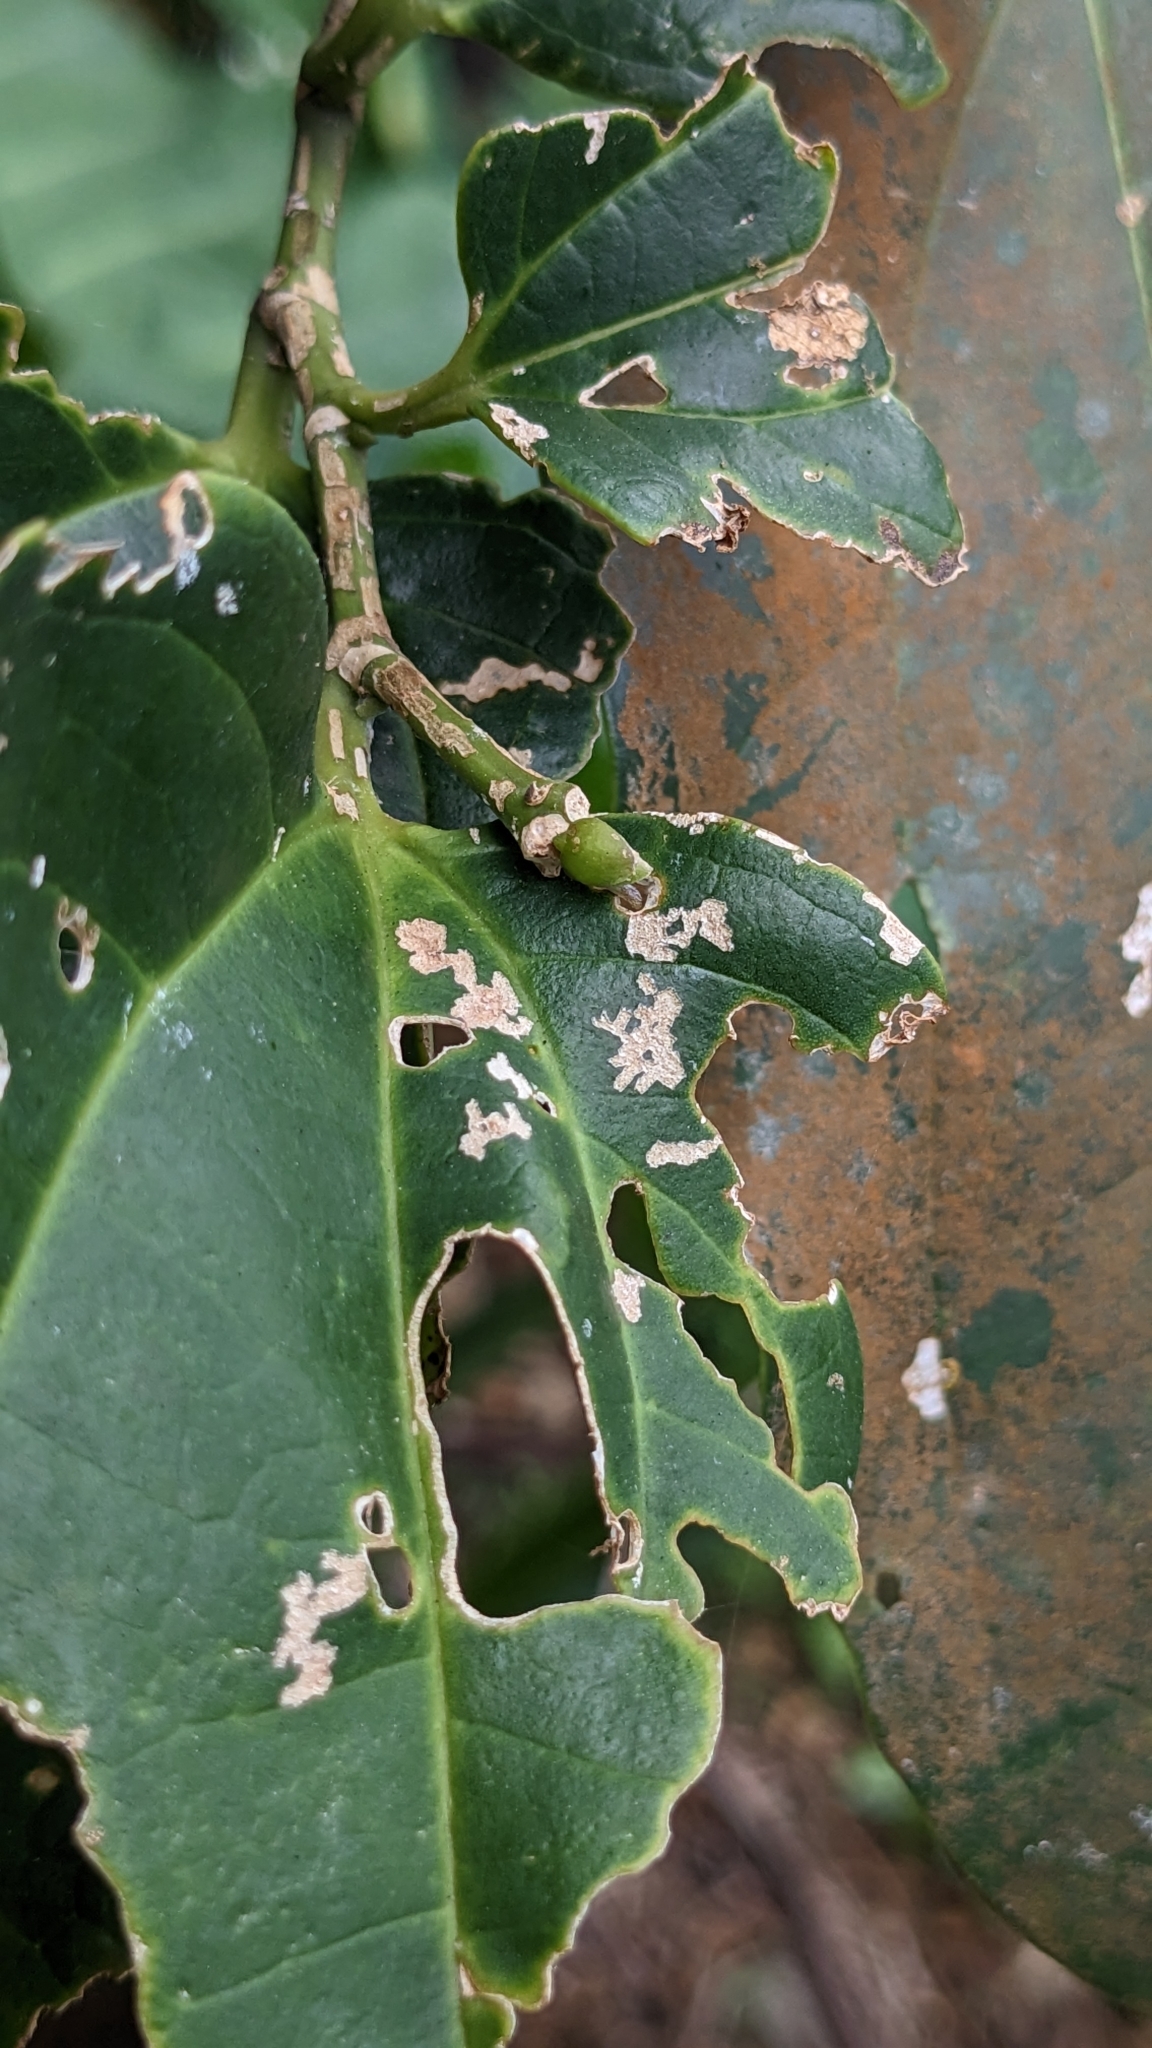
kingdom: Plantae
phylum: Tracheophyta
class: Magnoliopsida
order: Rosales
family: Cannabaceae
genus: Celtis
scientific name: Celtis philippensis
